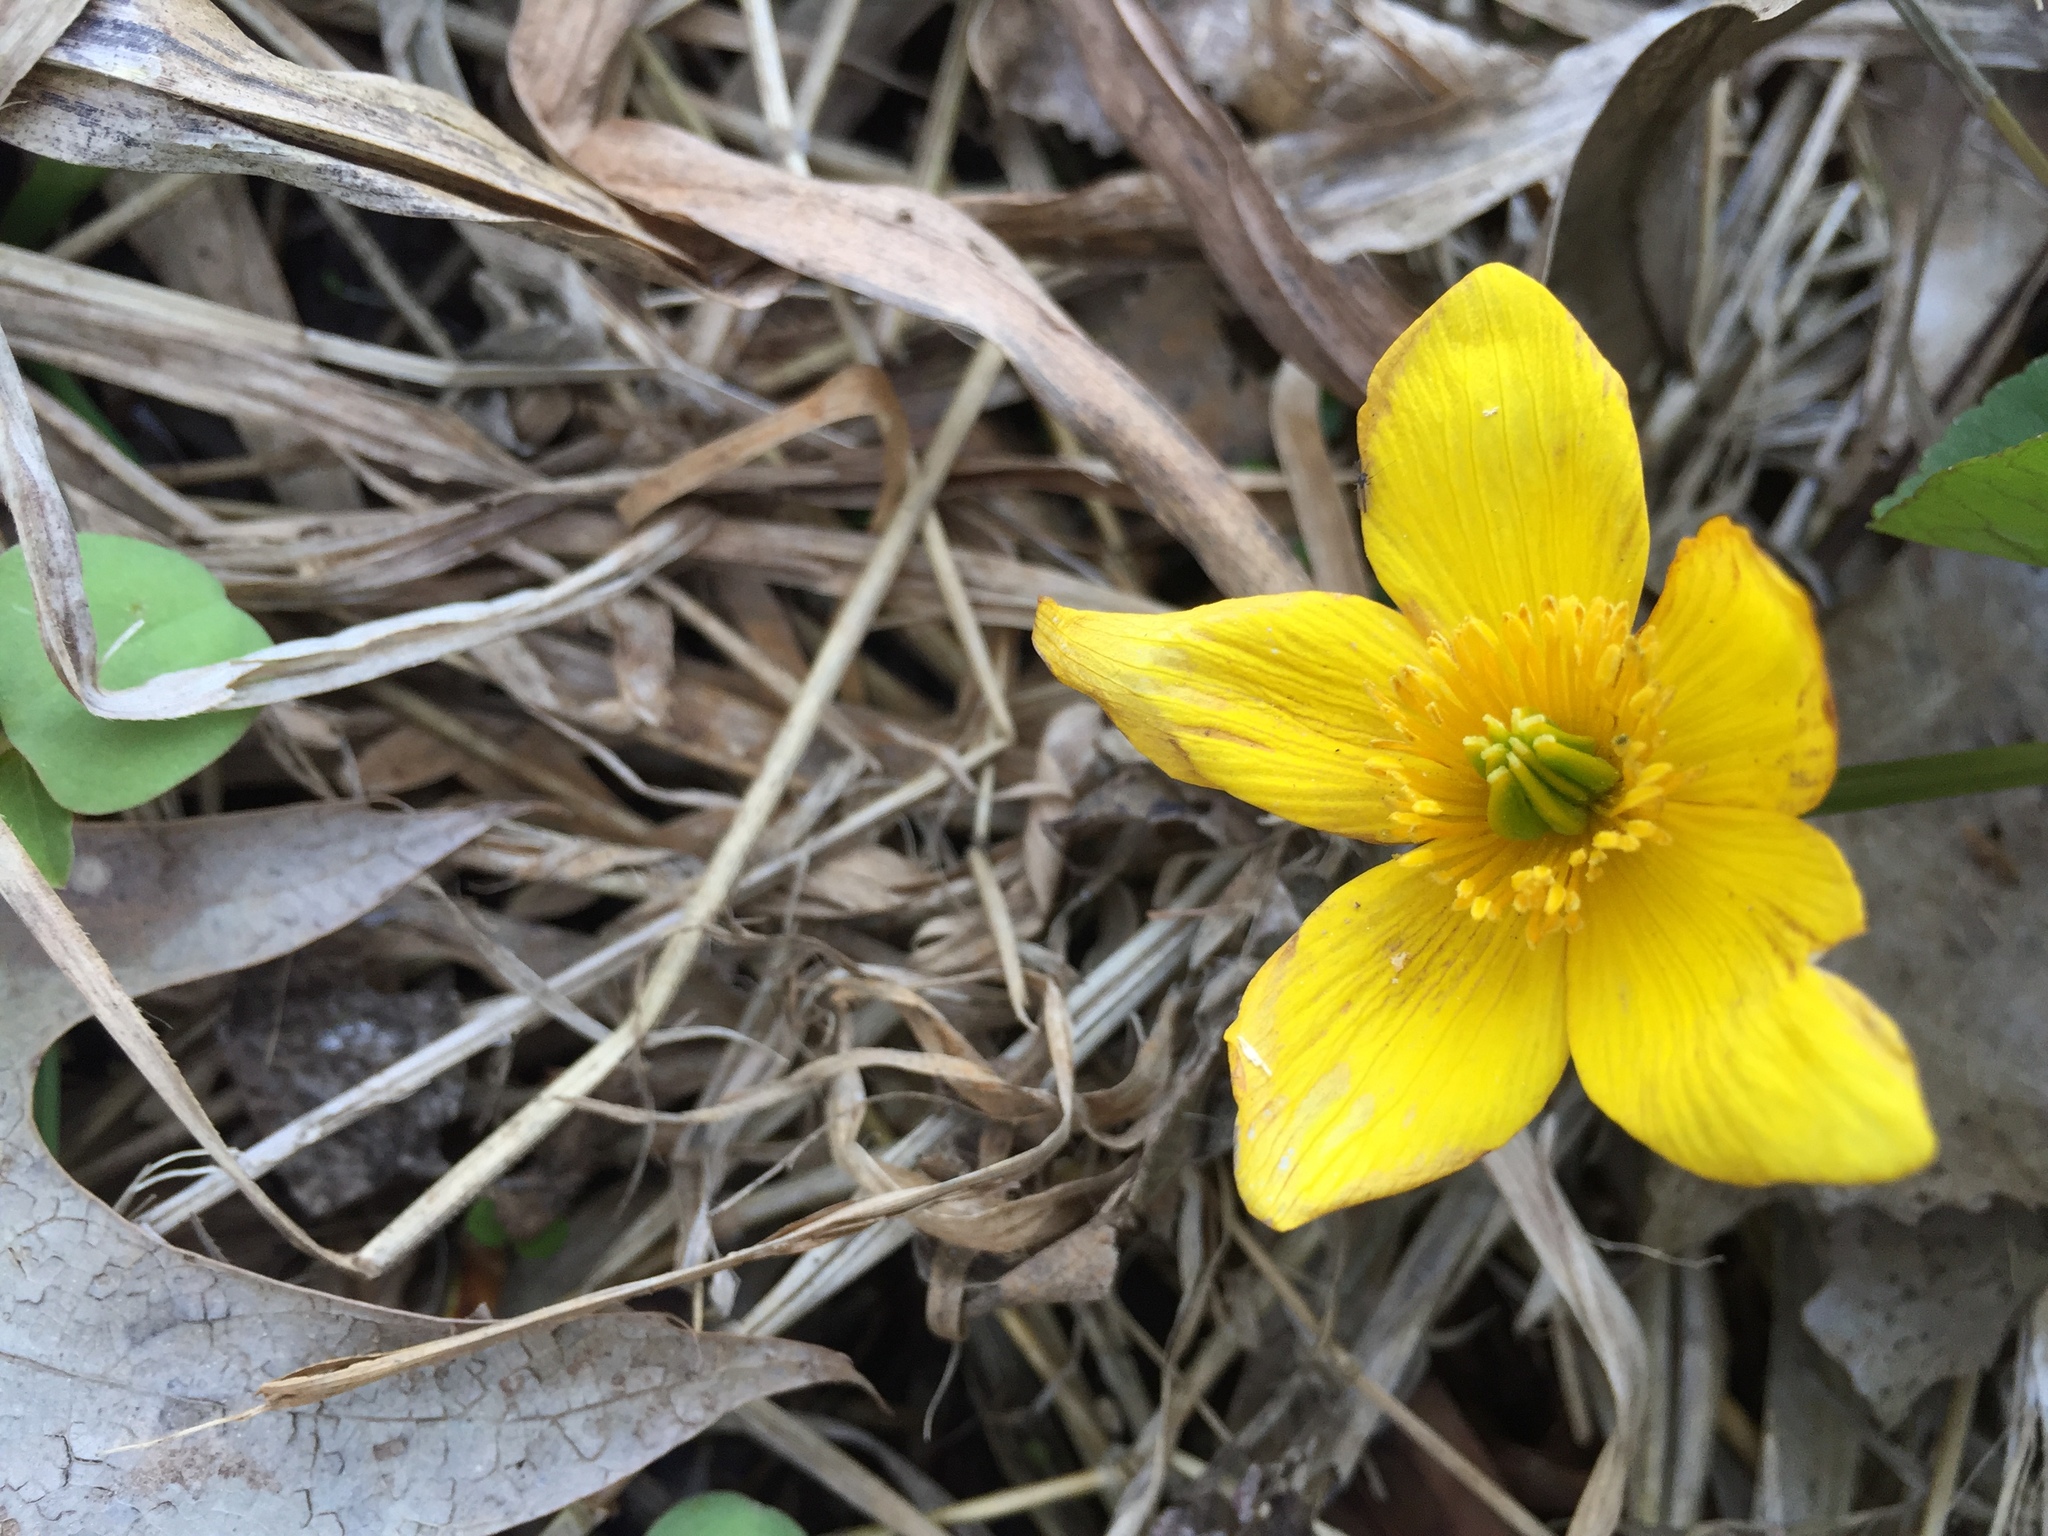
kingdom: Plantae
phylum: Tracheophyta
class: Magnoliopsida
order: Ranunculales
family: Ranunculaceae
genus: Caltha
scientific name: Caltha palustris
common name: Marsh marigold
